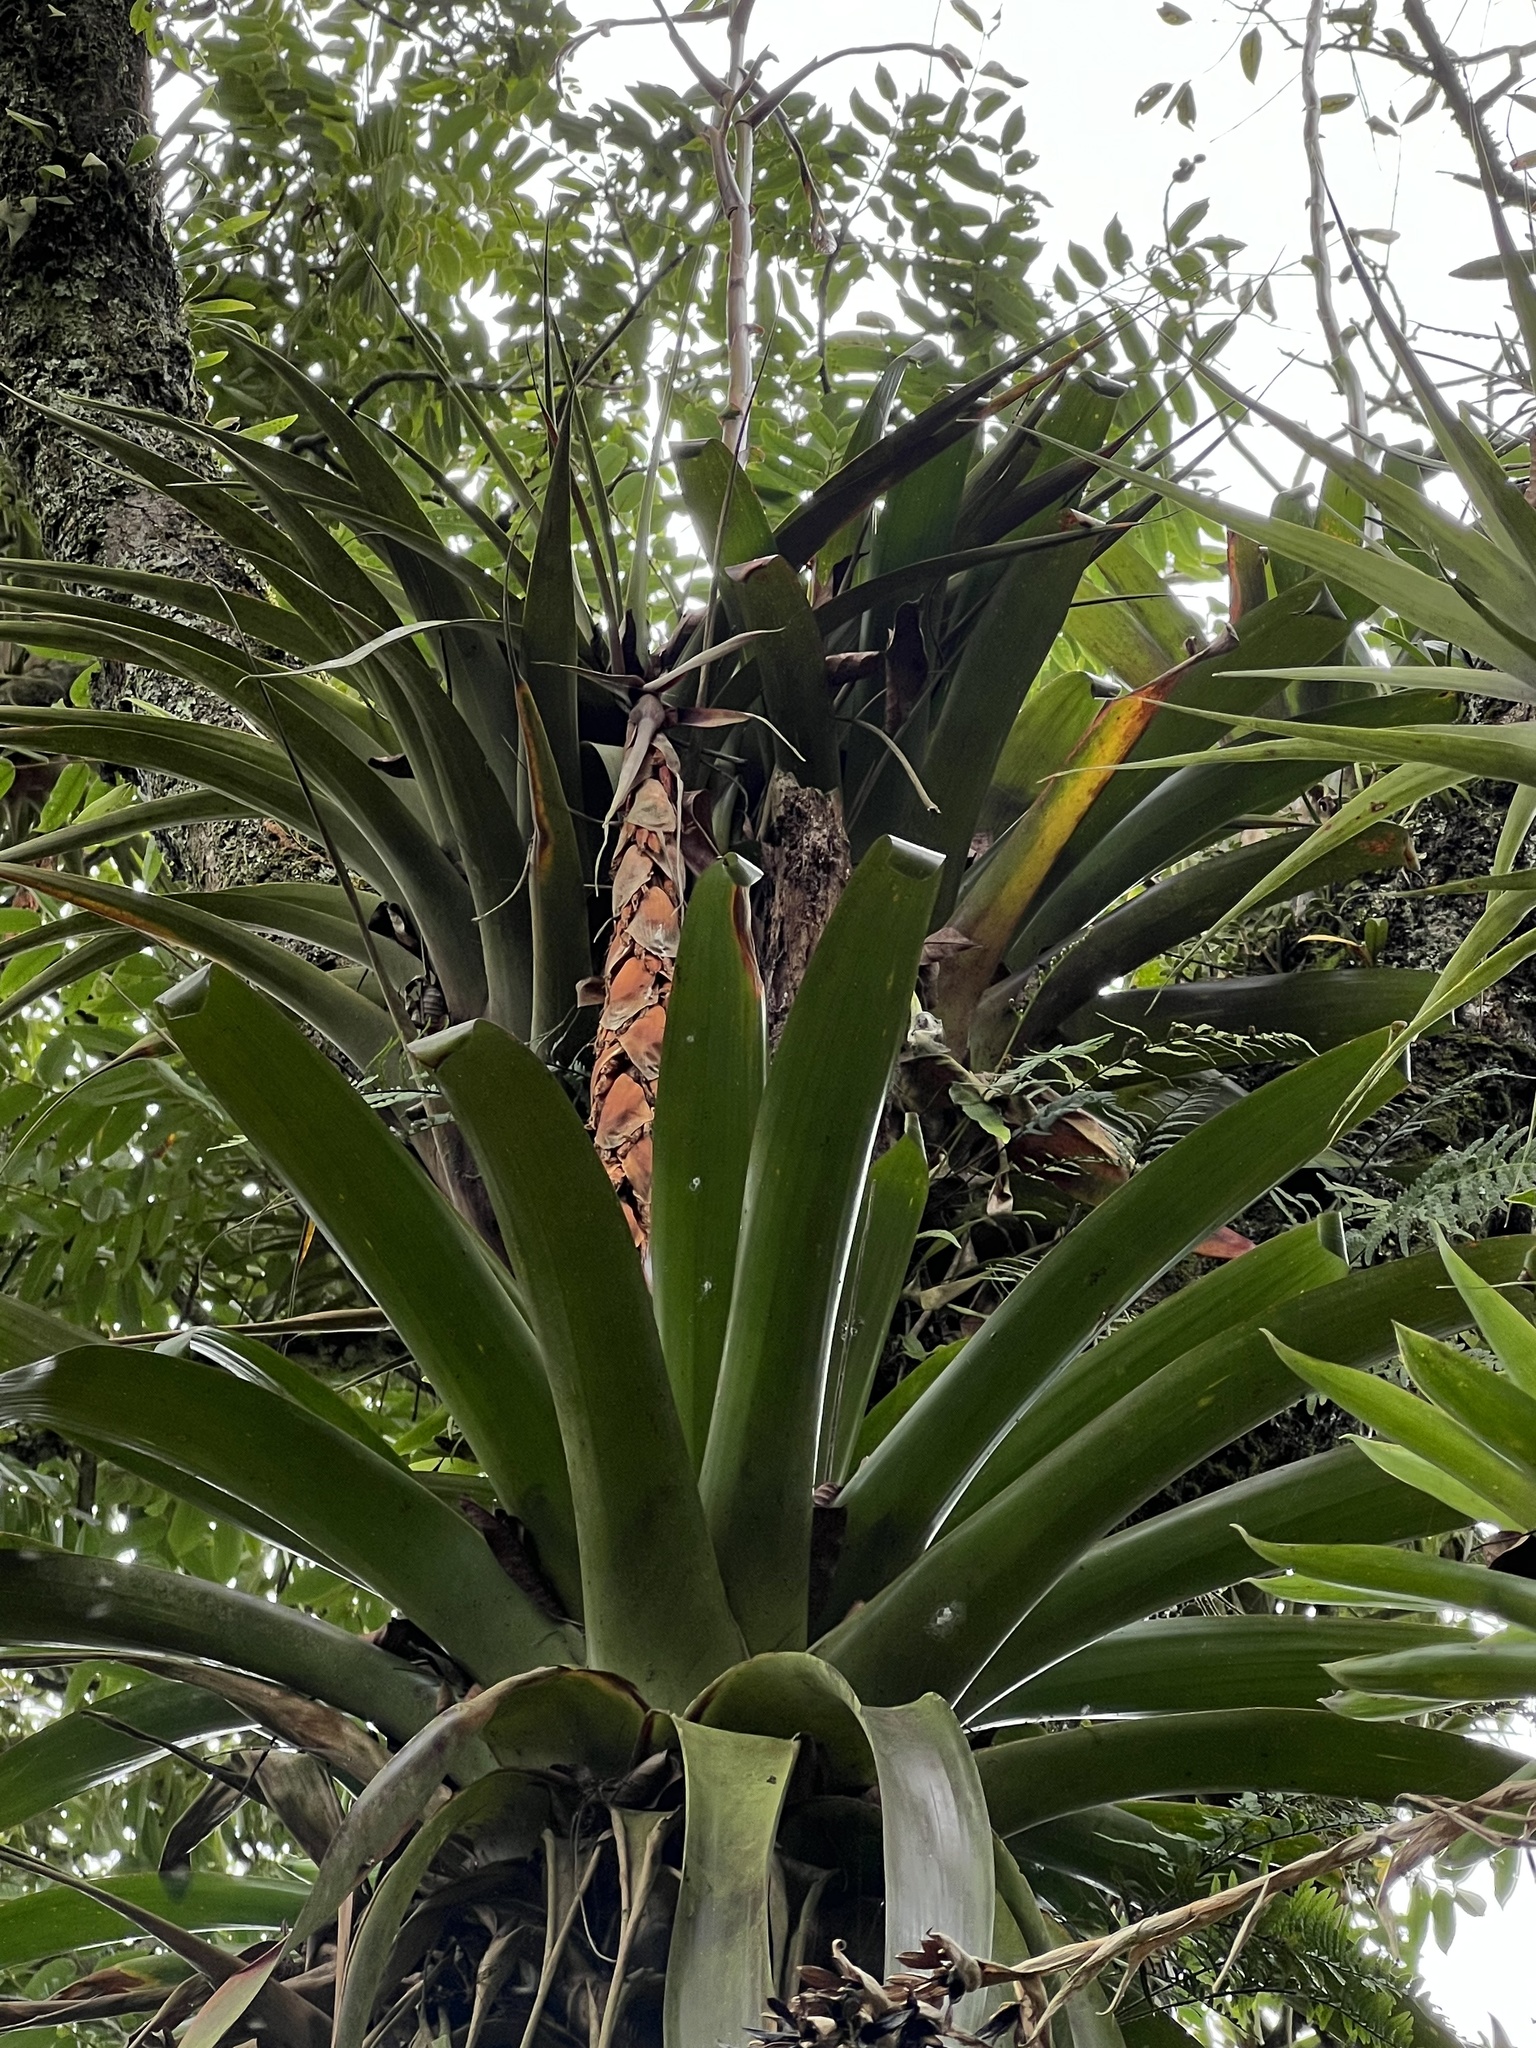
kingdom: Plantae
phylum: Tracheophyta
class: Liliopsida
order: Poales
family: Bromeliaceae
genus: Vriesea
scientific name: Vriesea tequendamae
